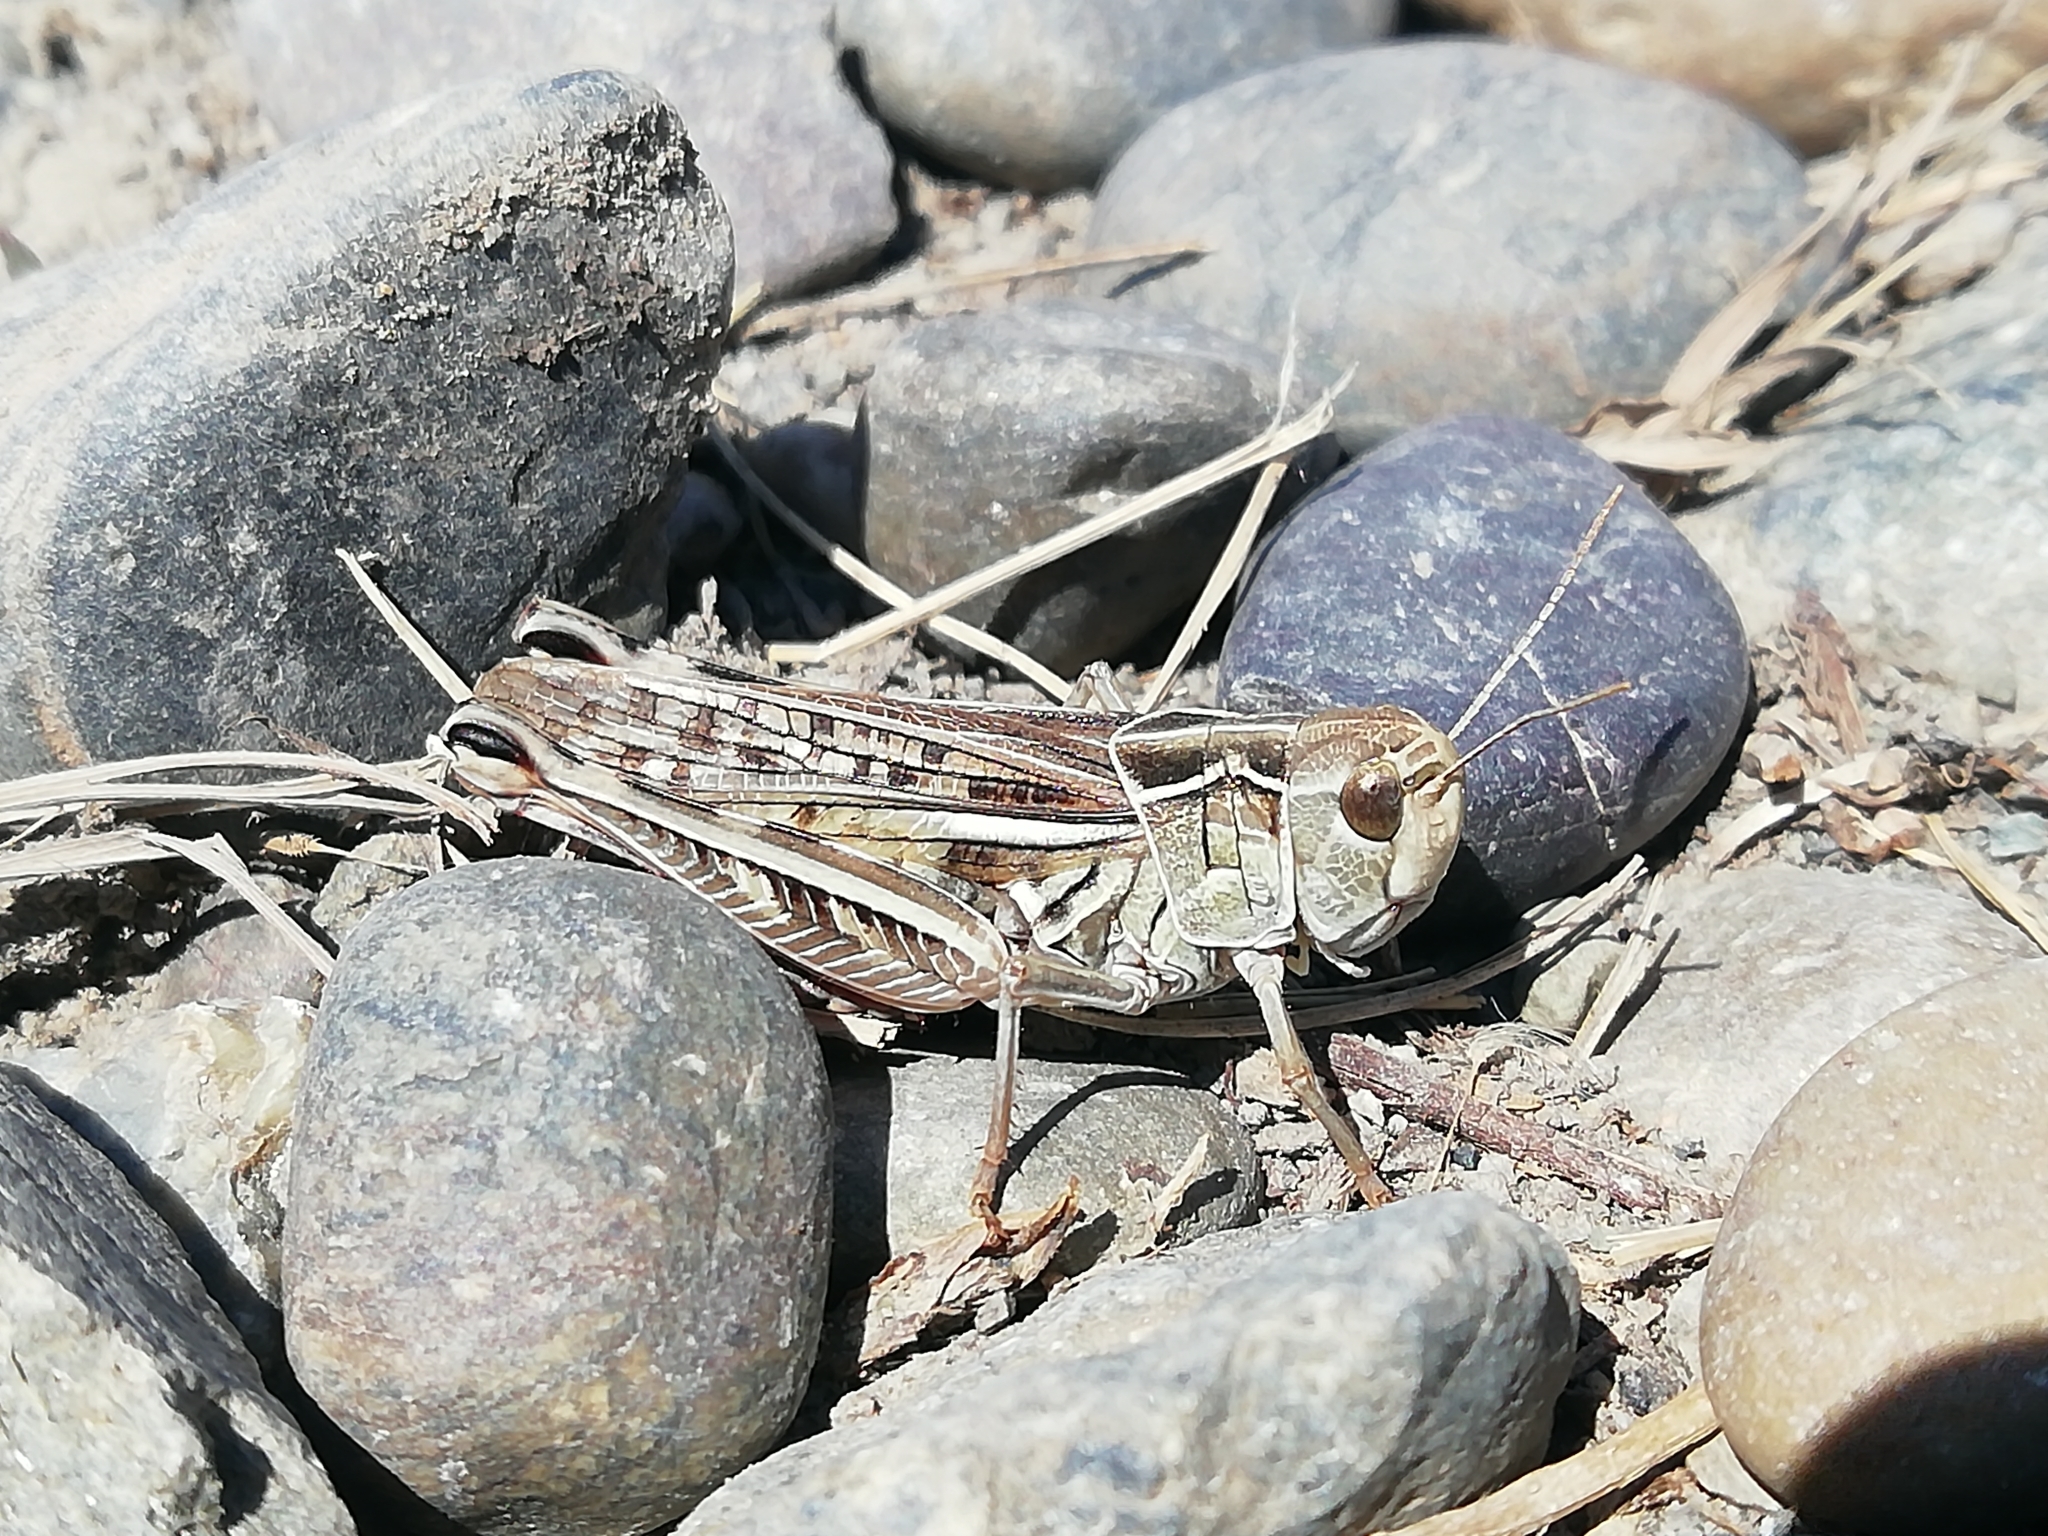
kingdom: Animalia
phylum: Arthropoda
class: Insecta
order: Orthoptera
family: Acrididae
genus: Arcyptera
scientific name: Arcyptera microptera
